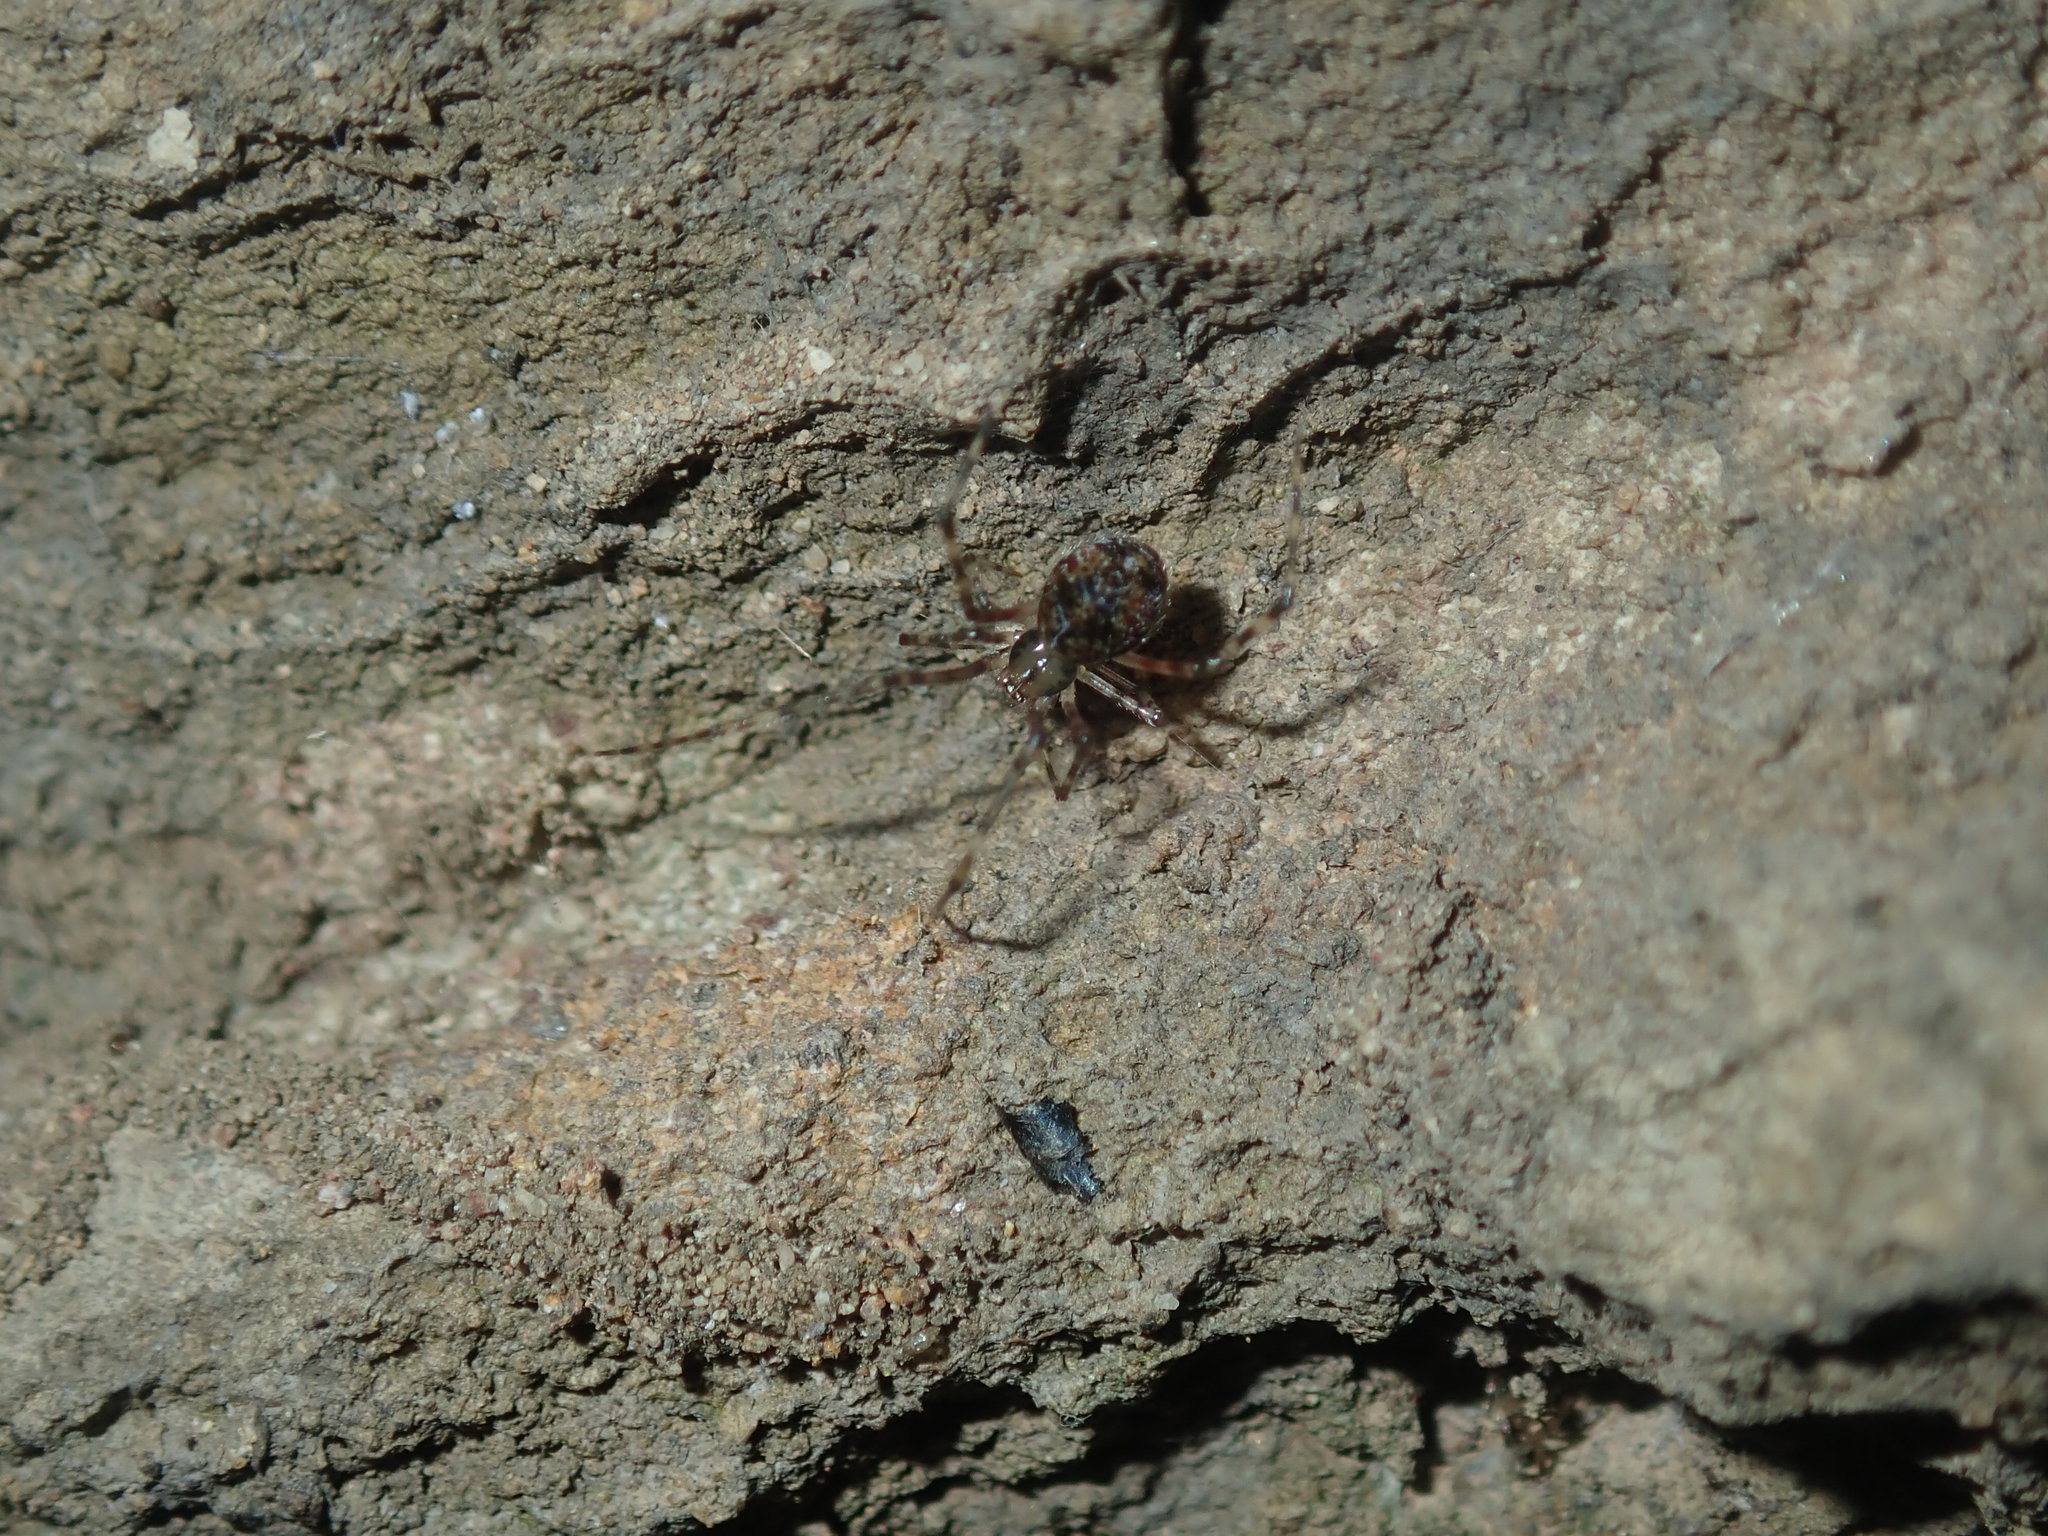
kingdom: Animalia
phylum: Arthropoda
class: Arachnida
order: Araneae
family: Theridiidae
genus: Cryptachaea
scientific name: Cryptachaea gigantipes
